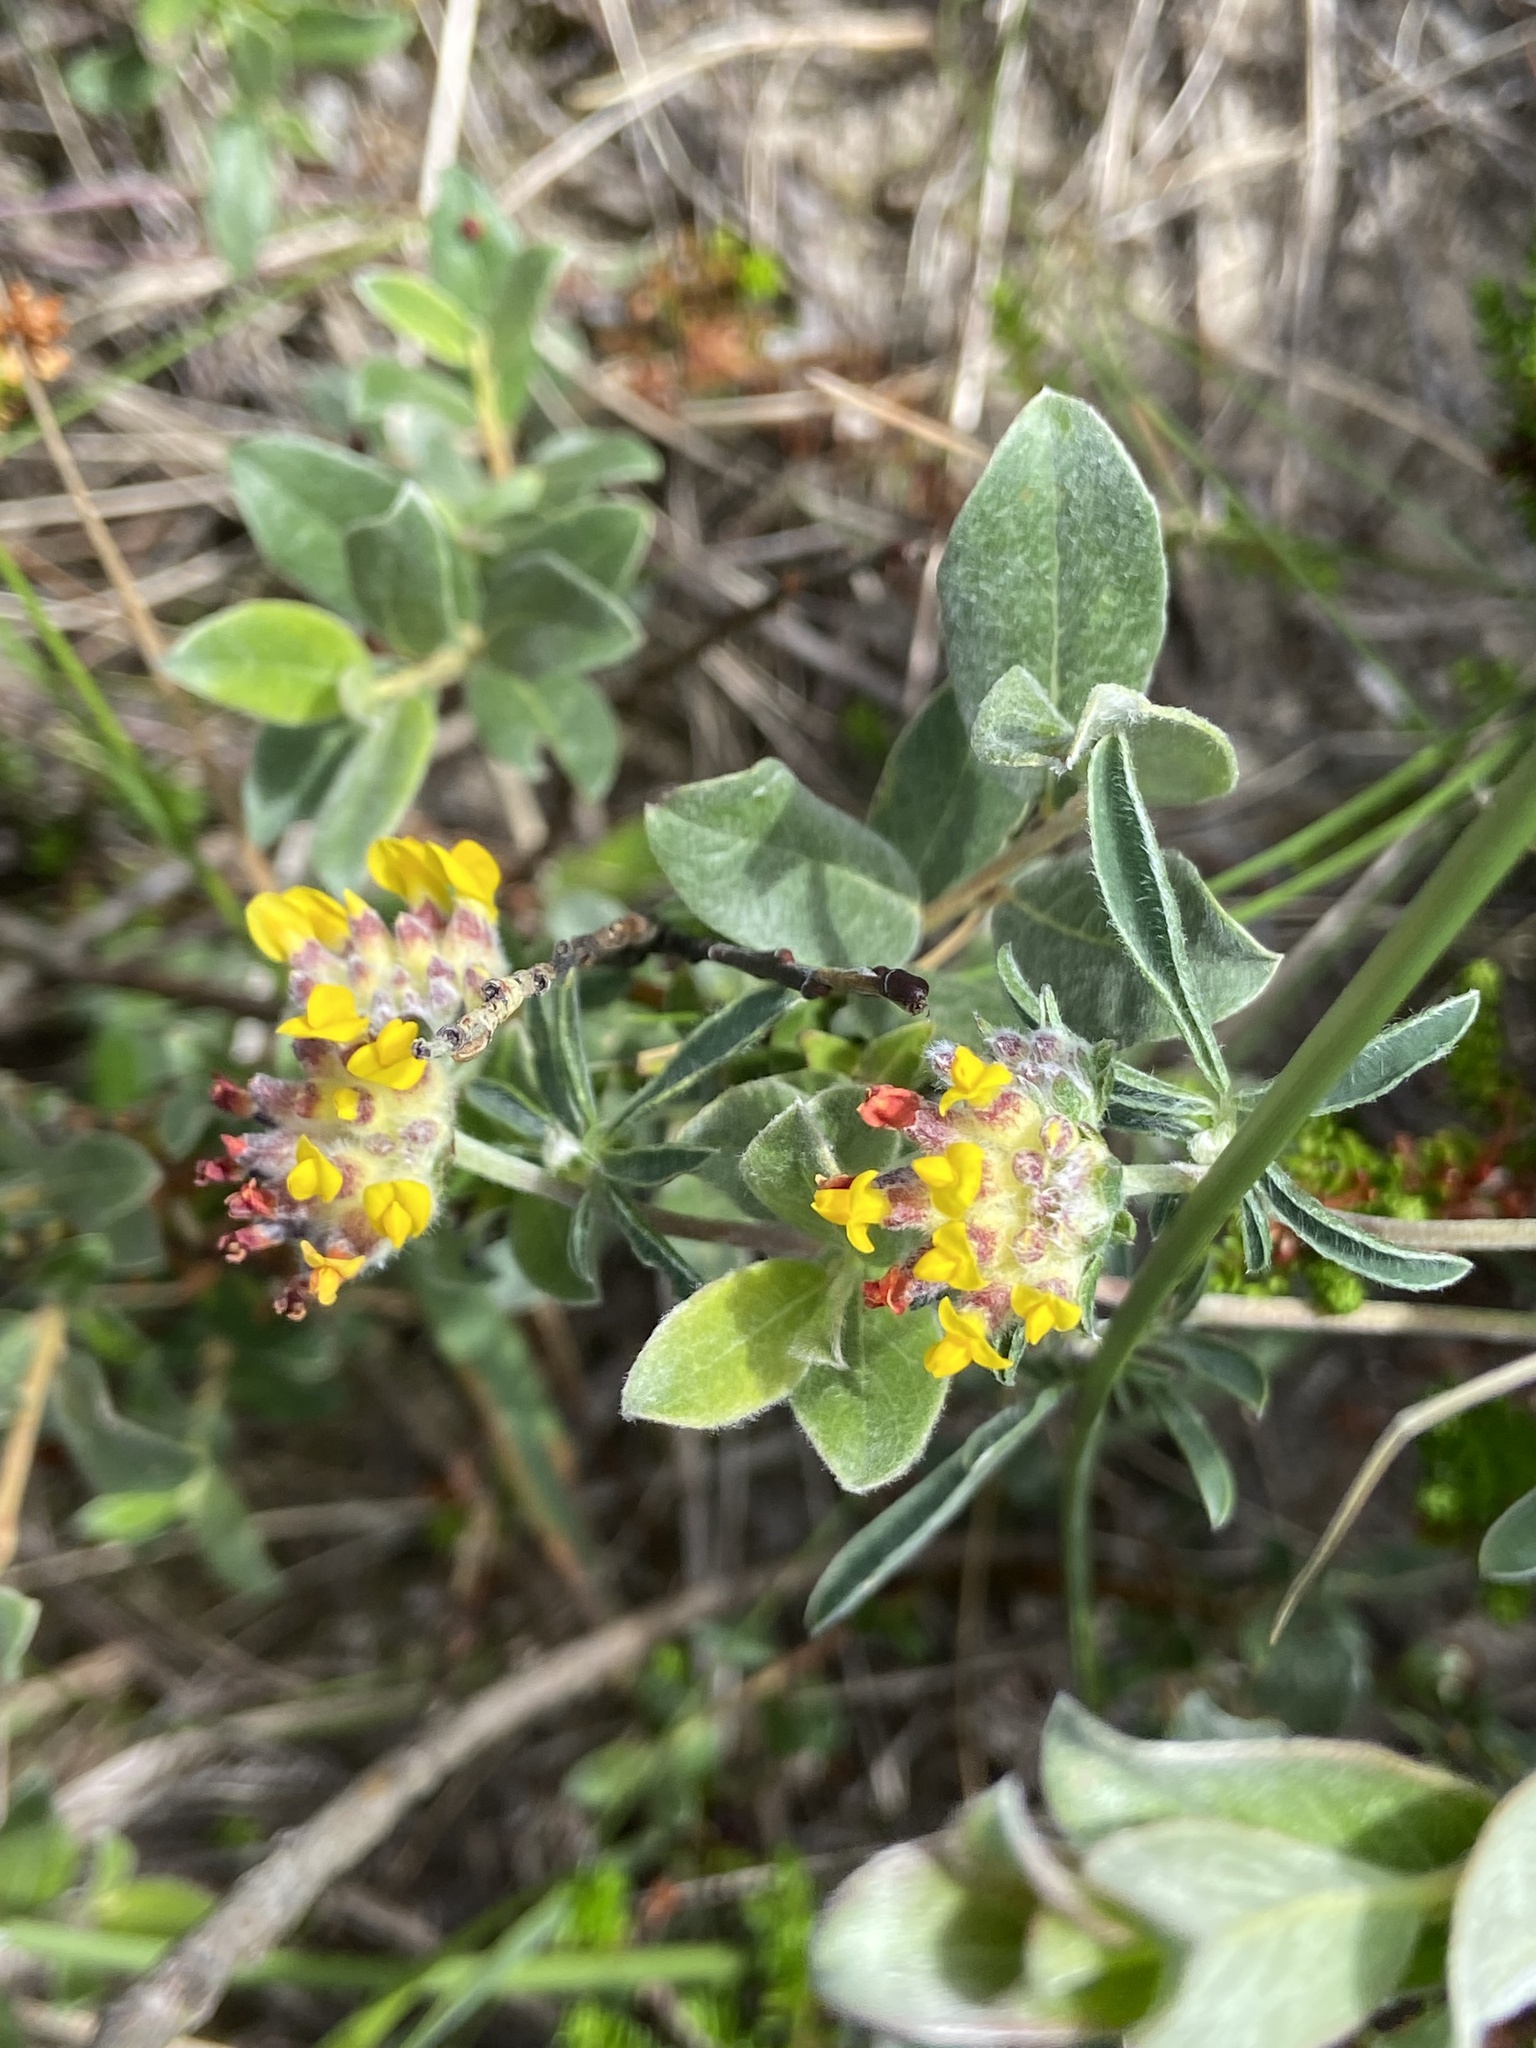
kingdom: Plantae
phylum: Tracheophyta
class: Magnoliopsida
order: Fabales
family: Fabaceae
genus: Anthyllis
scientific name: Anthyllis vulneraria
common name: Kidney vetch
